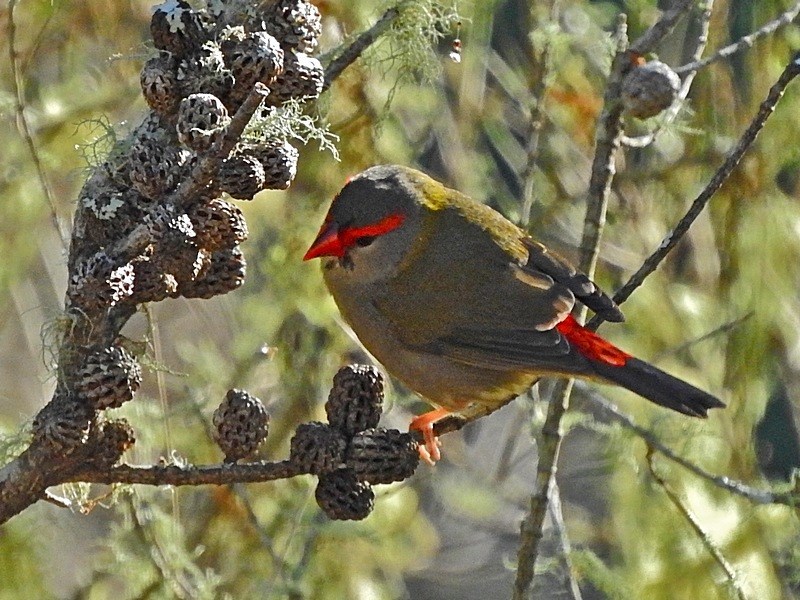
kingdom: Animalia
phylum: Chordata
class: Aves
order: Passeriformes
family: Estrildidae
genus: Neochmia
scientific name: Neochmia temporalis
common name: Red-browed finch
